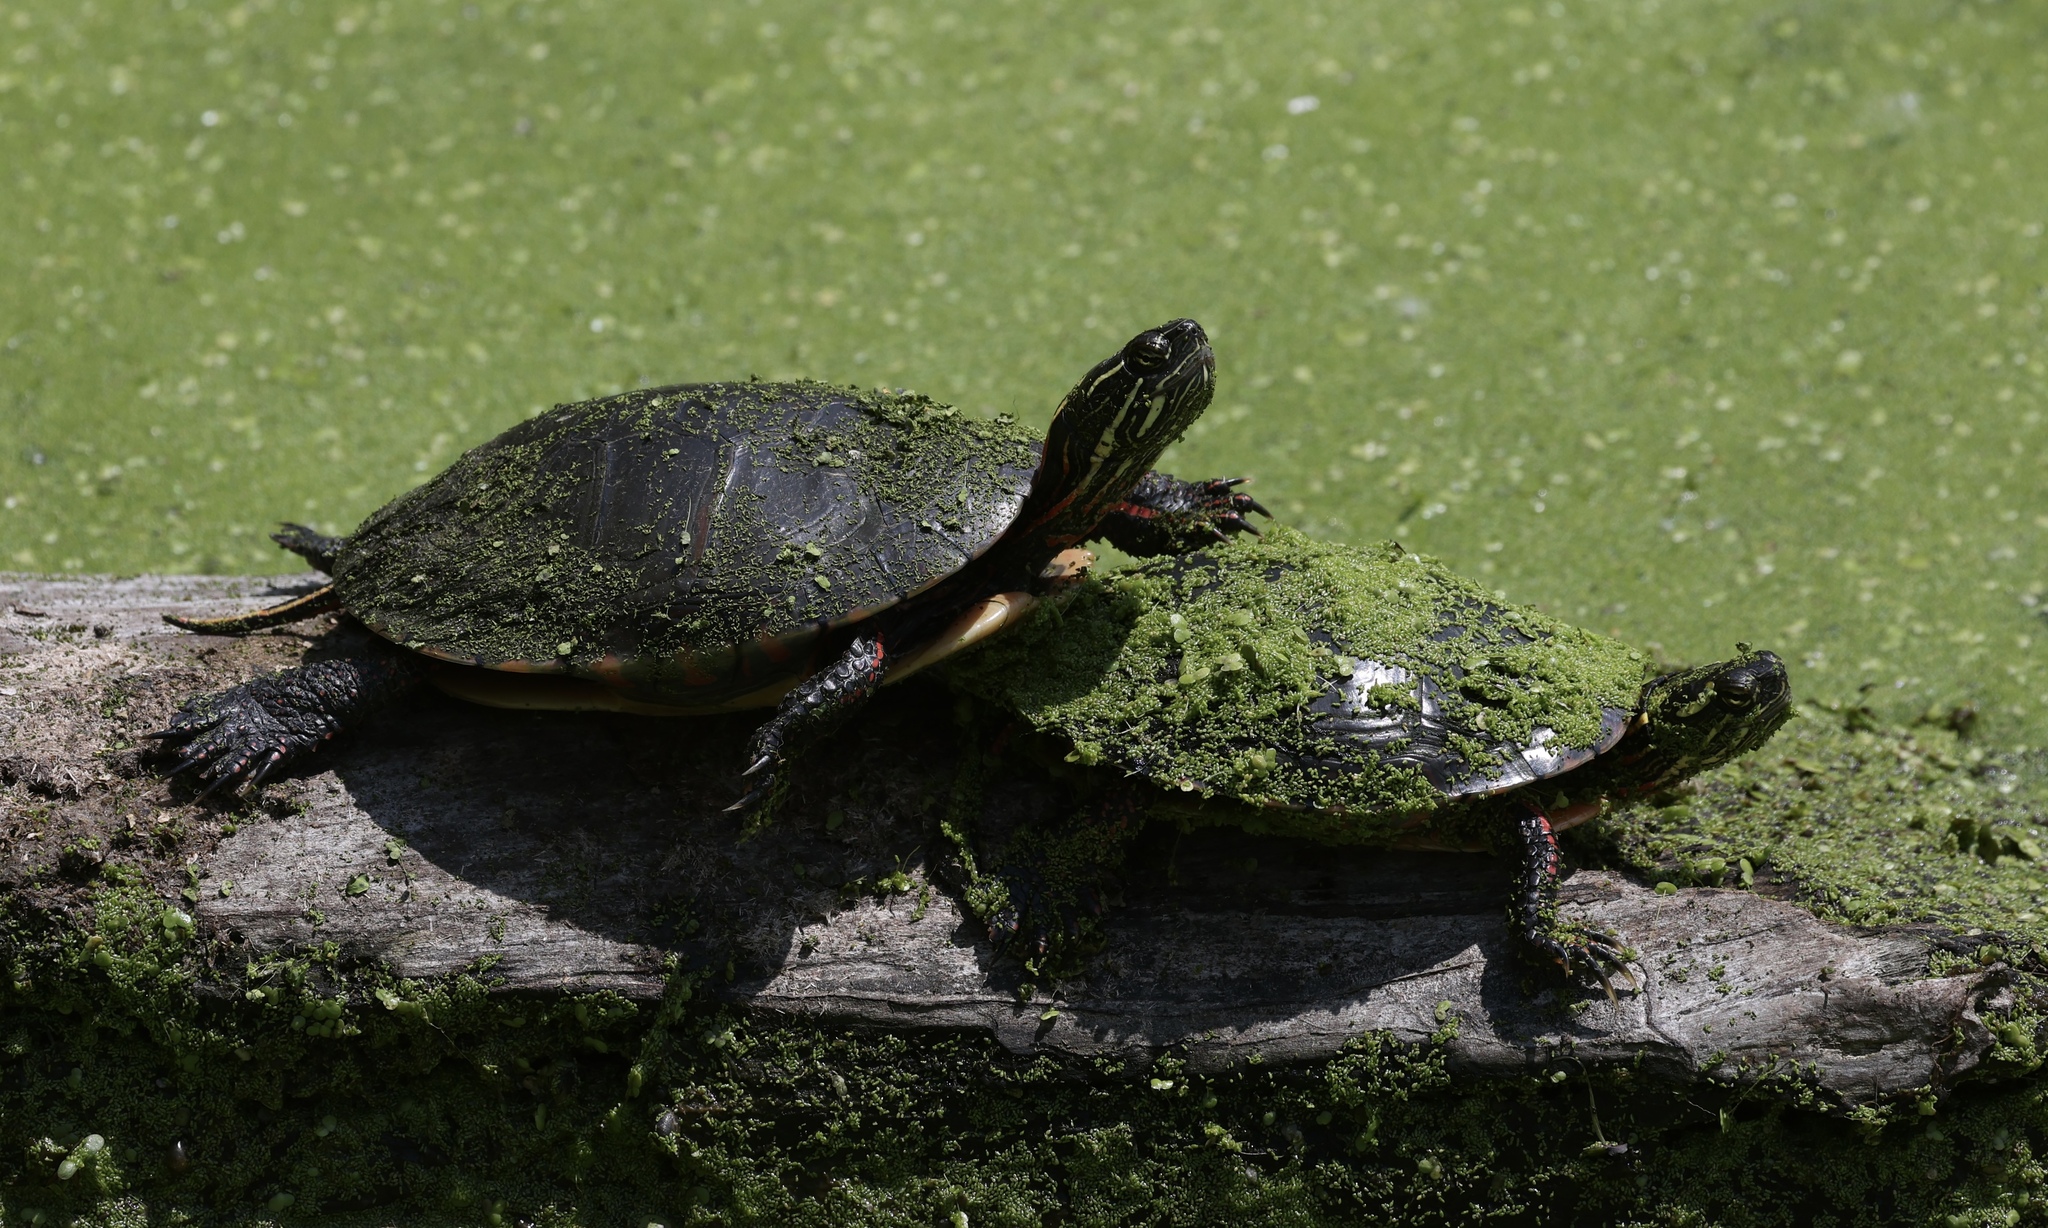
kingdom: Animalia
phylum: Chordata
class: Testudines
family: Emydidae
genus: Chrysemys
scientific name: Chrysemys picta
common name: Painted turtle
